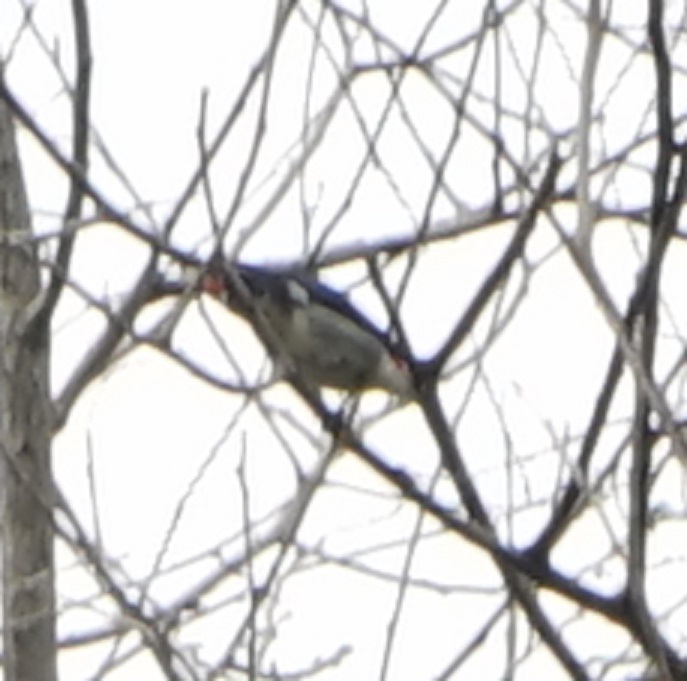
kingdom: Animalia
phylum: Chordata
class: Aves
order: Passeriformes
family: Dicaeidae
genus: Dicaeum
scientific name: Dicaeum cruentatum
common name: Scarlet-backed flowerpecker
